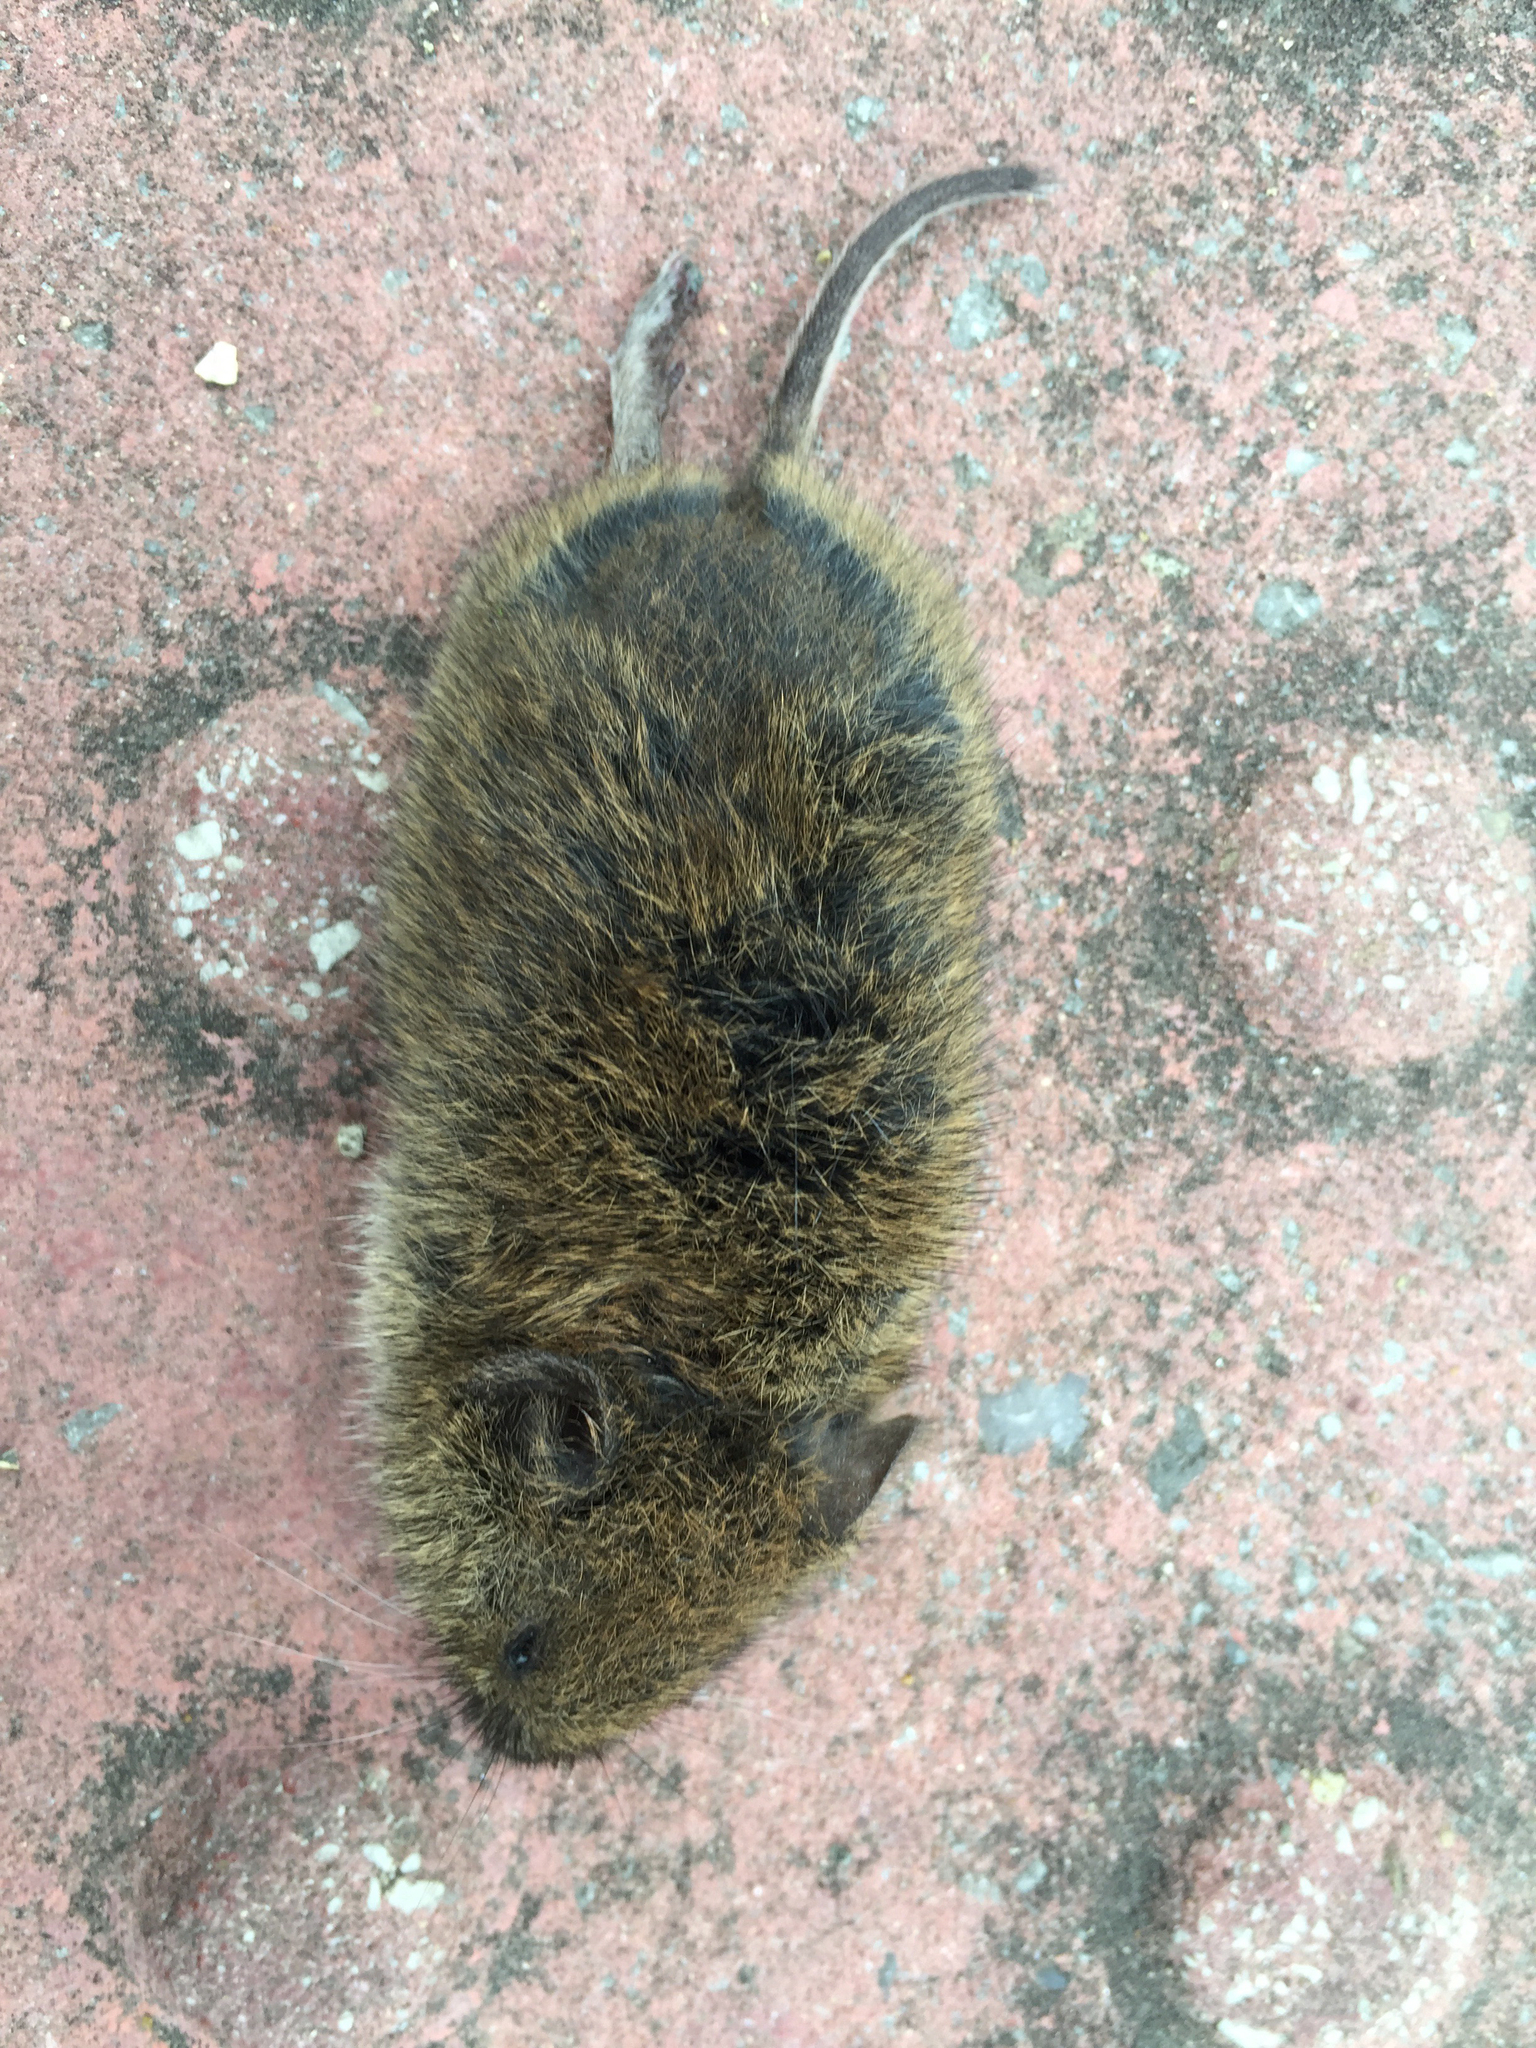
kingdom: Animalia
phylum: Chordata
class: Mammalia
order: Rodentia
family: Cricetidae
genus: Myodes
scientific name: Myodes glareolus
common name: Bank vole
